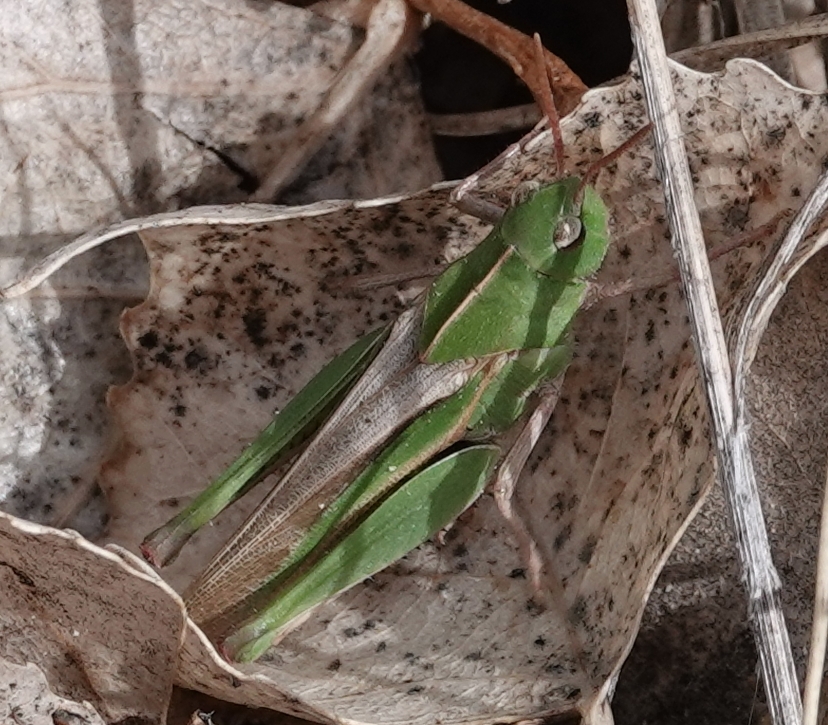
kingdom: Animalia
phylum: Arthropoda
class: Insecta
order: Orthoptera
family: Acrididae
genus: Chortophaga
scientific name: Chortophaga viridifasciata
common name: Green-striped grasshopper
